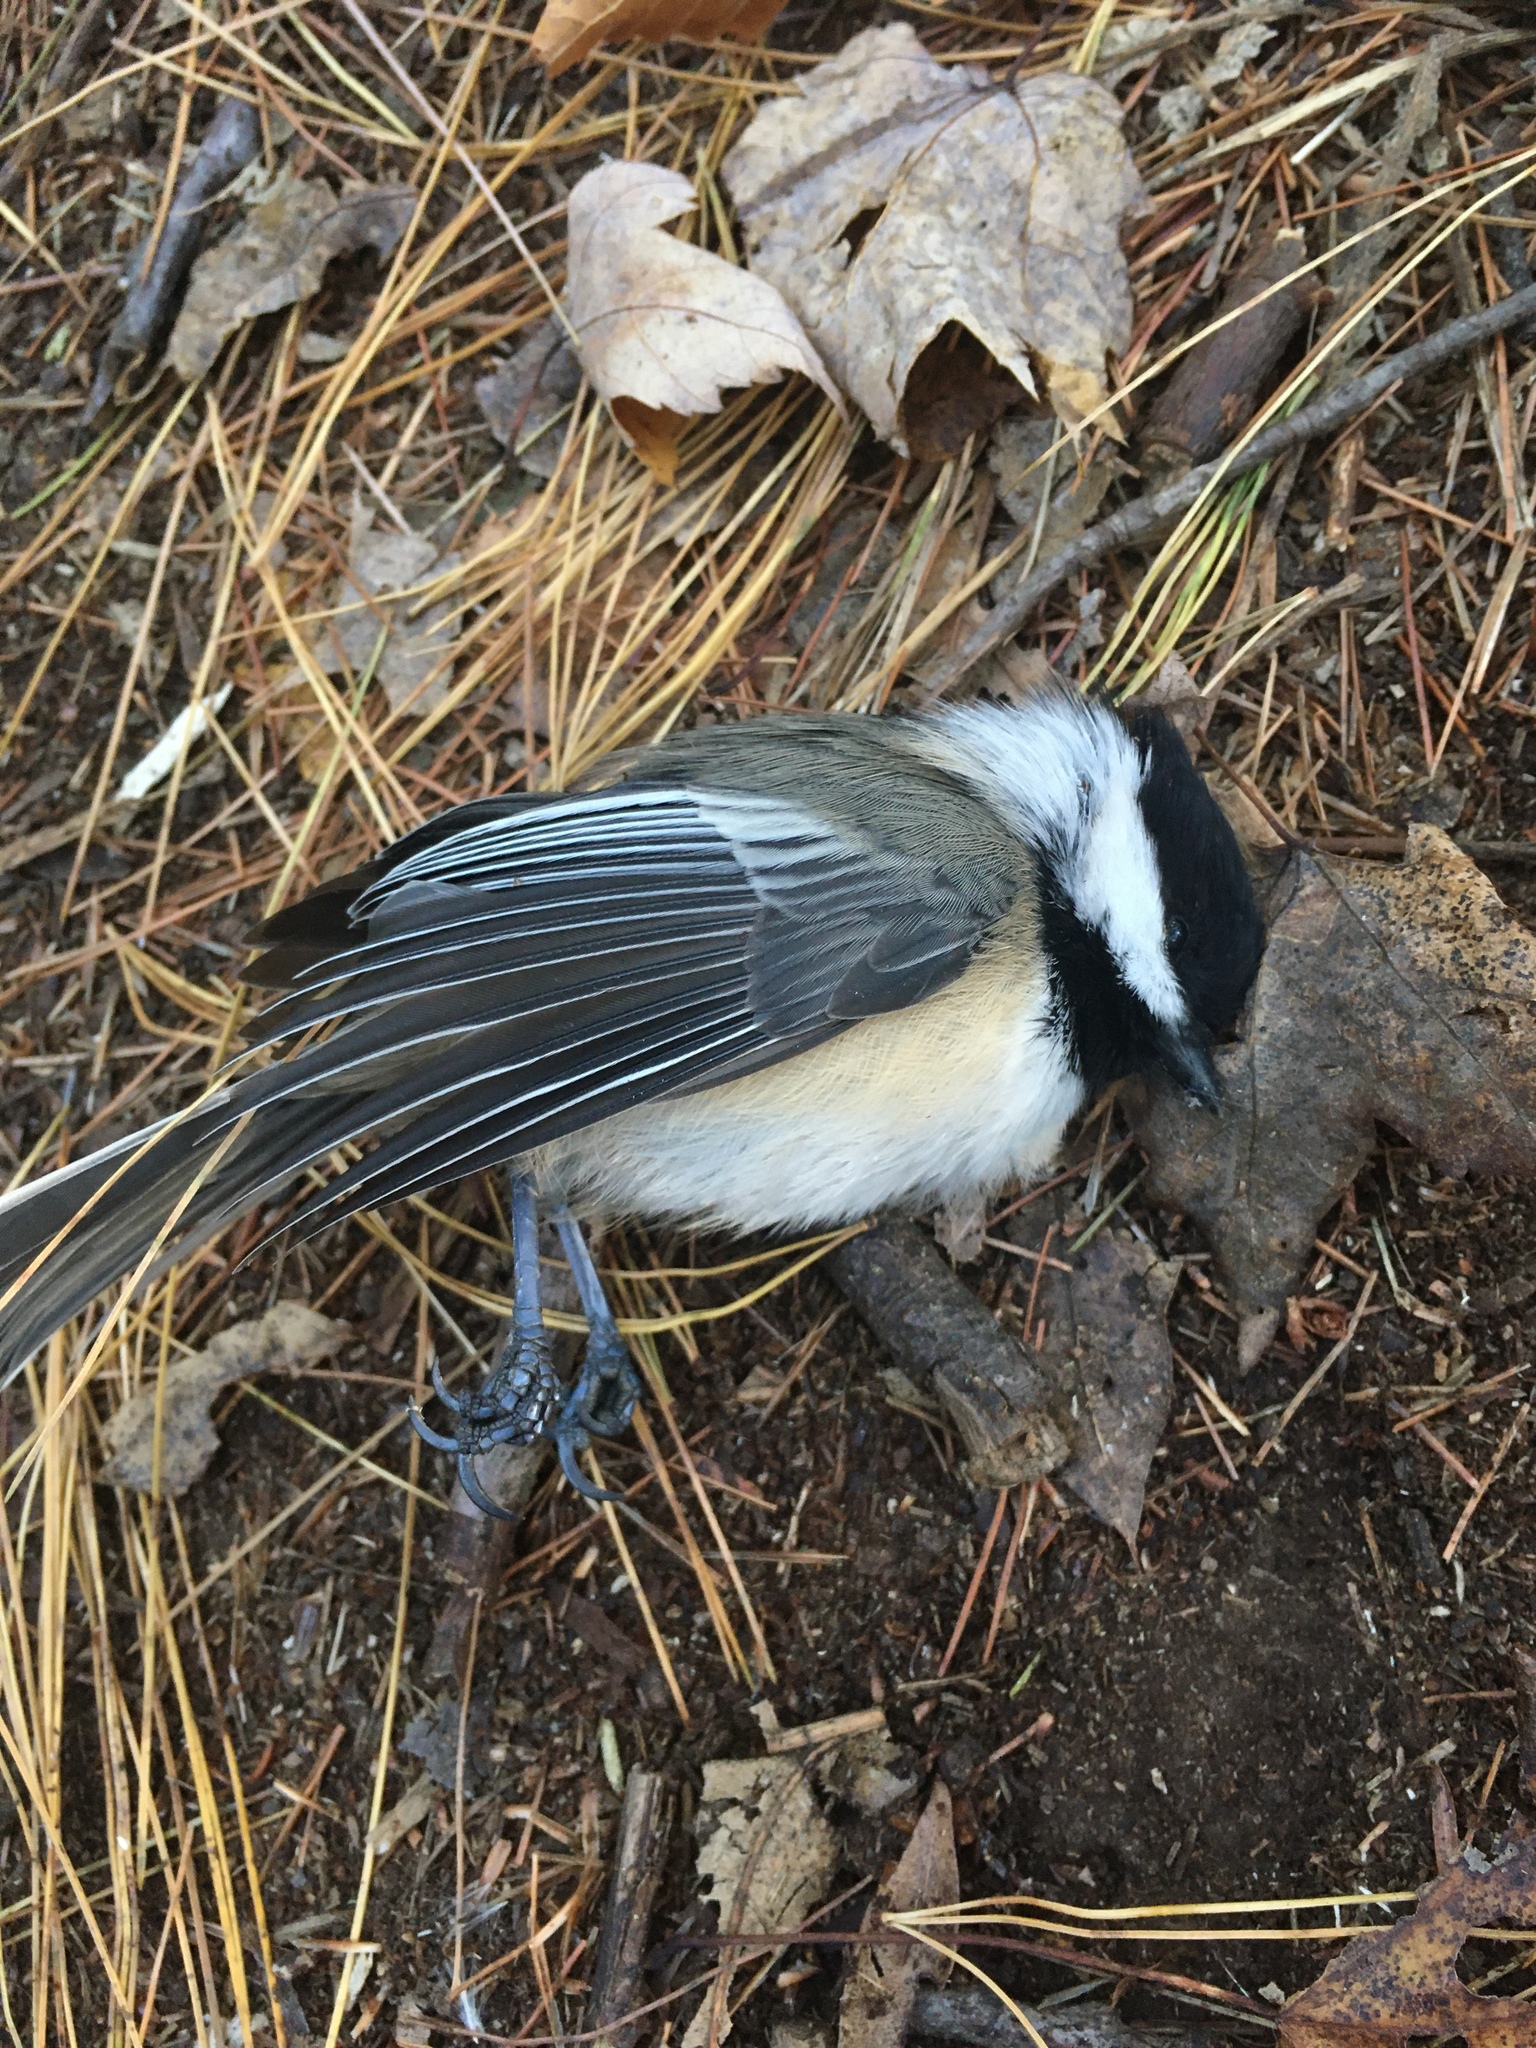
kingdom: Animalia
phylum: Chordata
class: Aves
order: Passeriformes
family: Paridae
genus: Poecile
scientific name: Poecile atricapillus
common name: Black-capped chickadee
